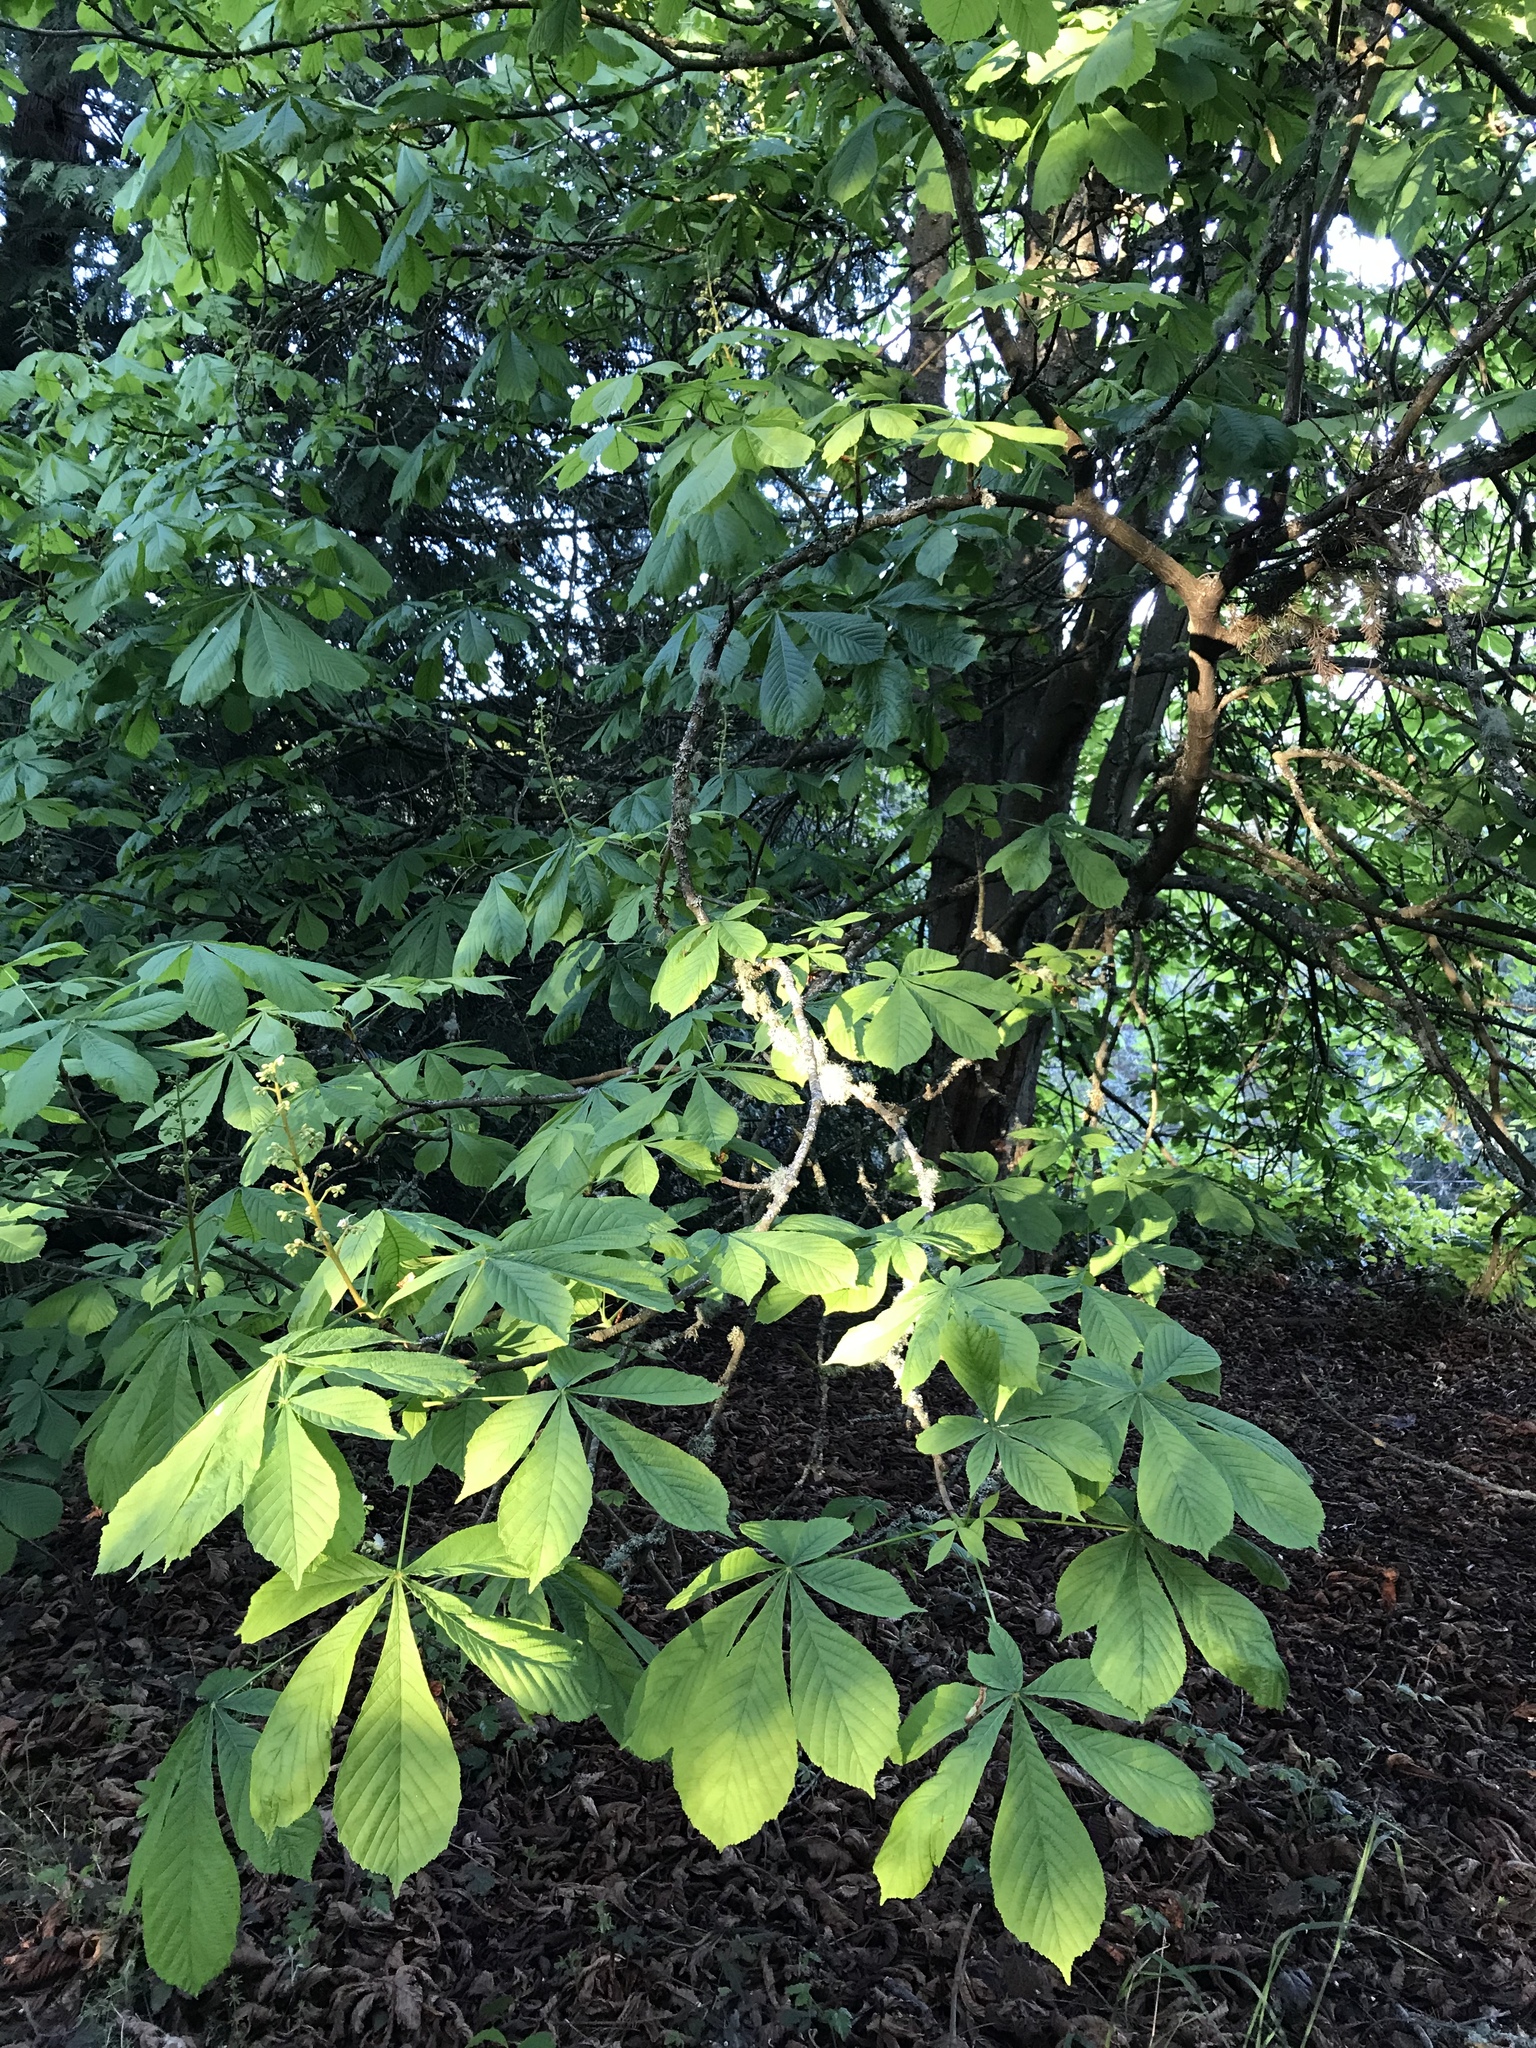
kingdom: Plantae
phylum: Tracheophyta
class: Magnoliopsida
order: Sapindales
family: Sapindaceae
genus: Aesculus
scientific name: Aesculus hippocastanum
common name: Horse-chestnut
